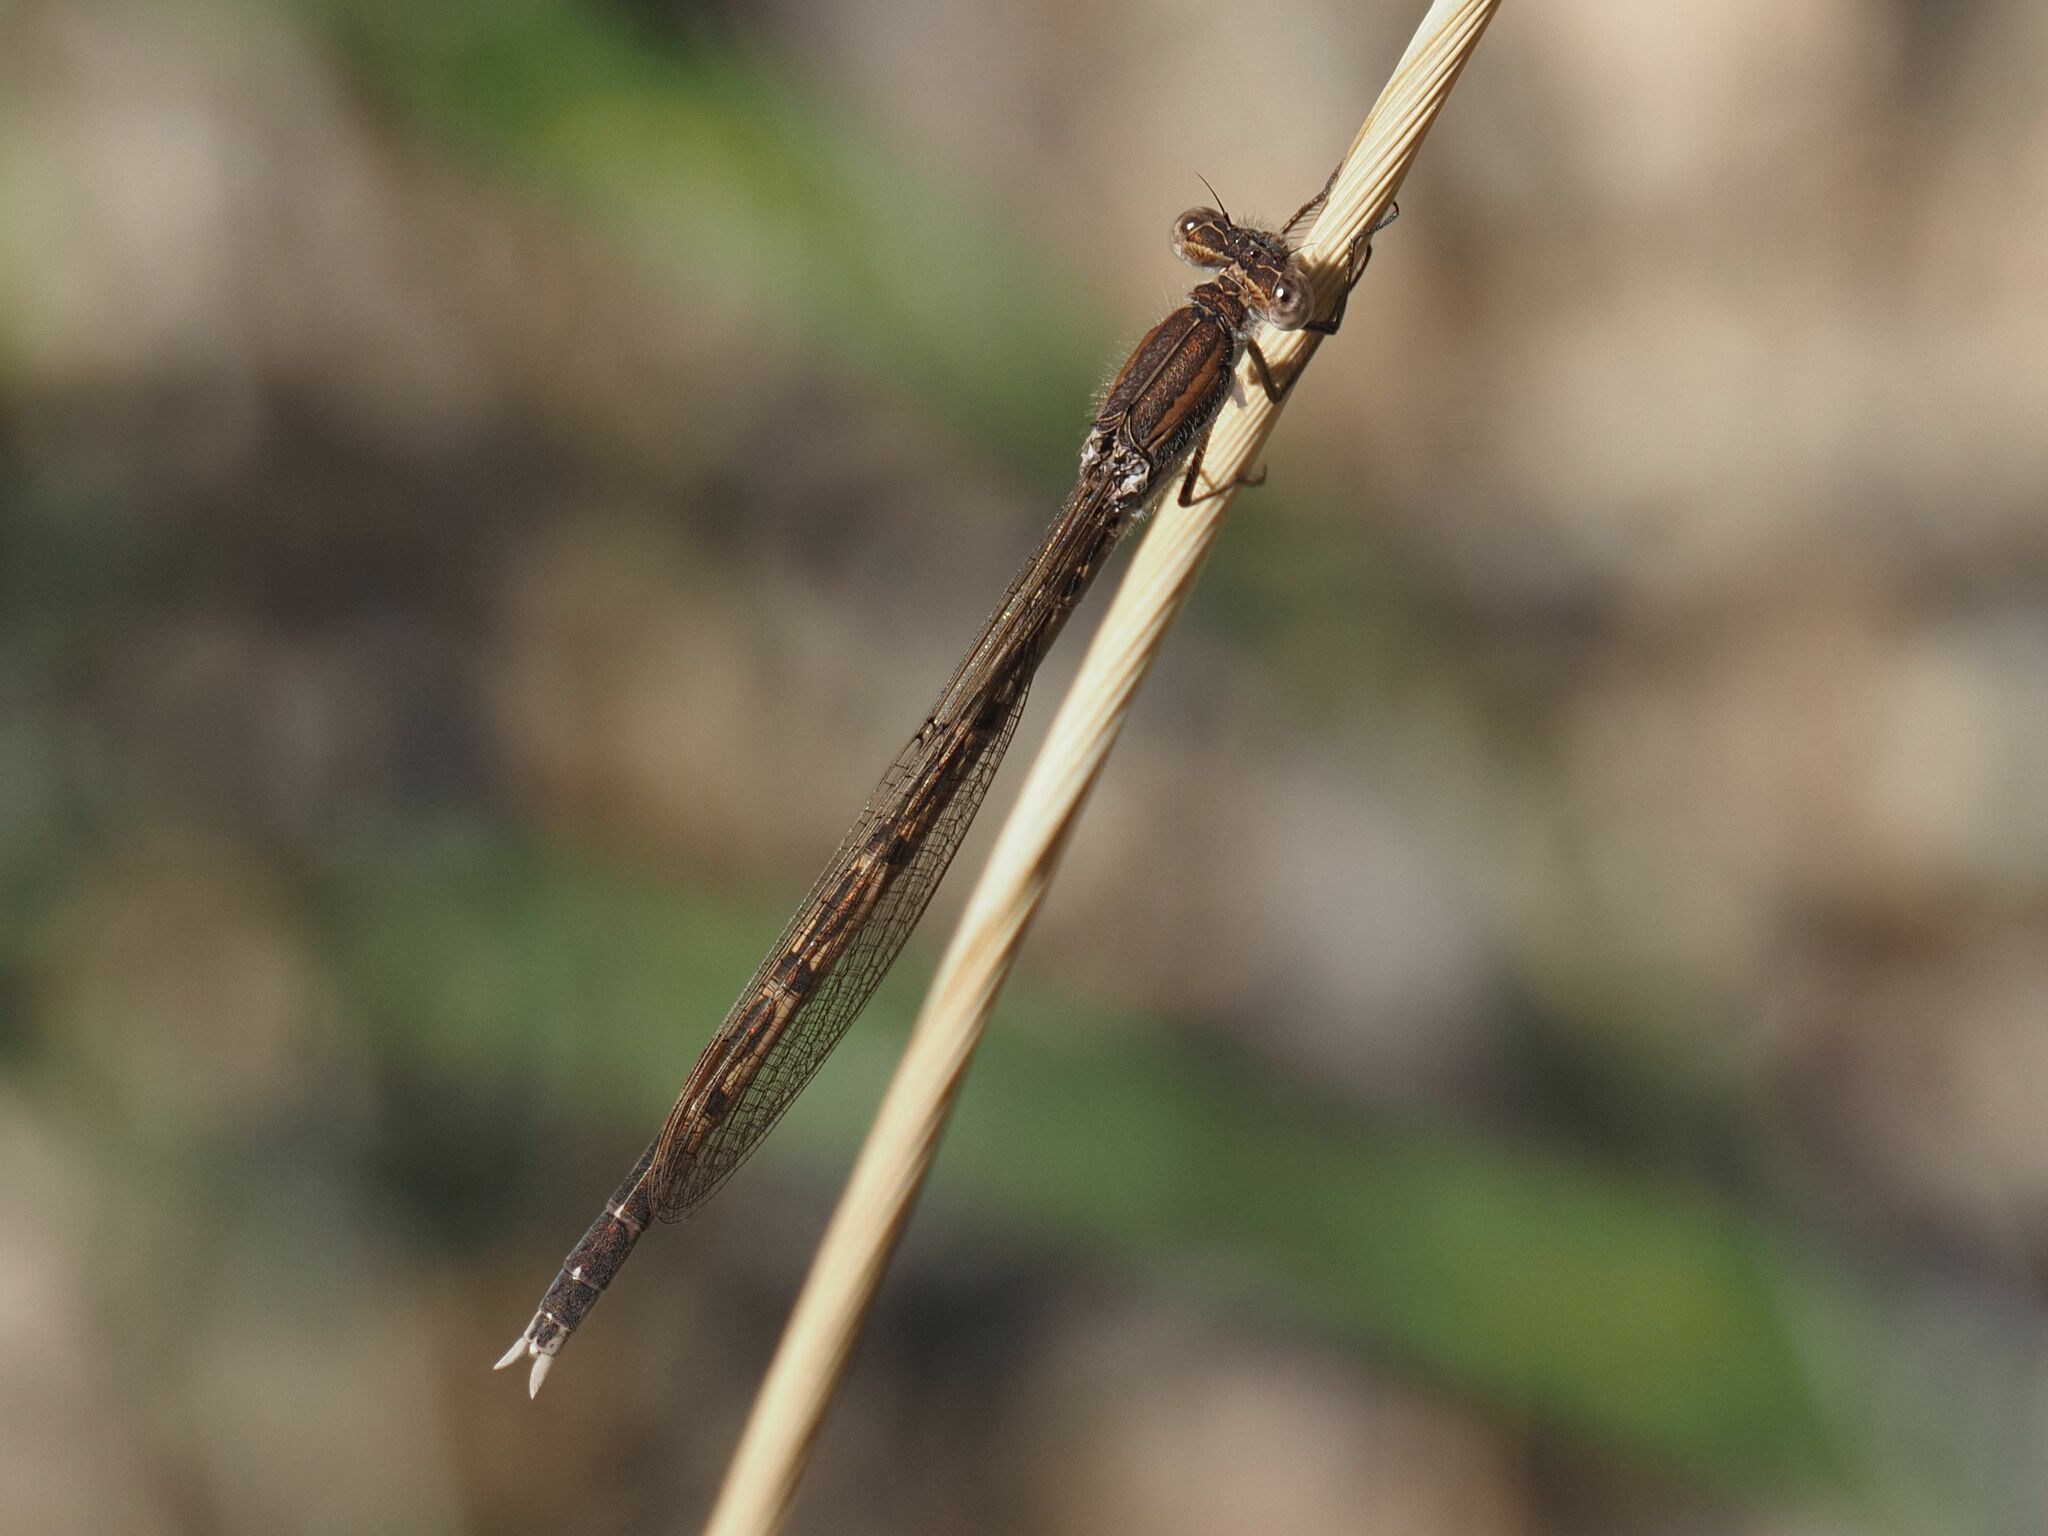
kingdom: Animalia
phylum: Arthropoda
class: Insecta
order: Odonata
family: Lestidae
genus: Sympecma
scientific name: Sympecma fusca
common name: Common winter damsel
